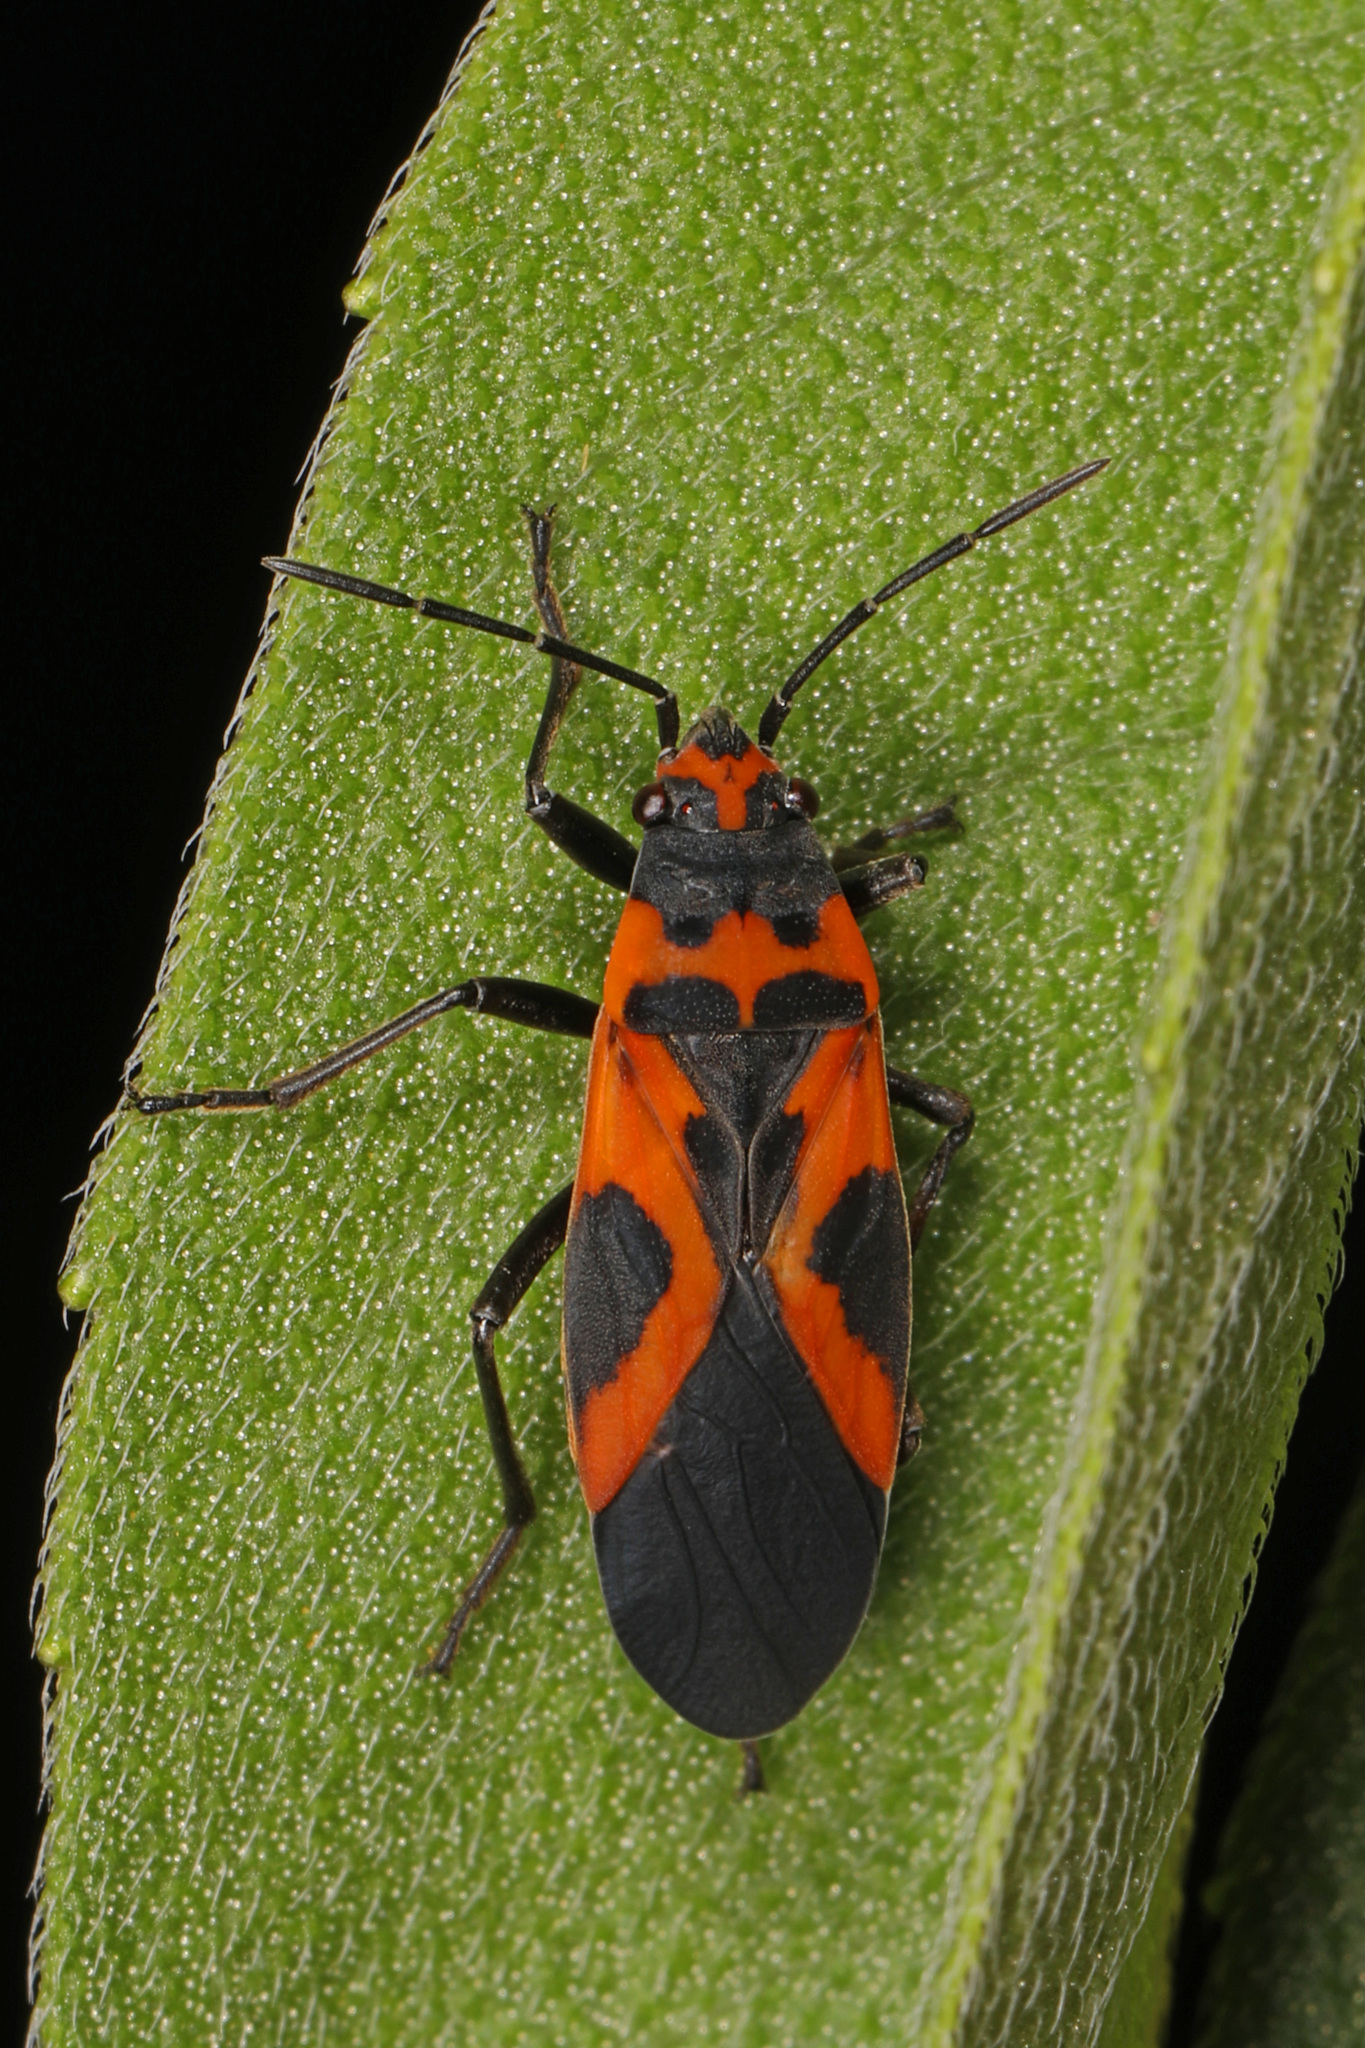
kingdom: Animalia
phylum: Arthropoda
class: Insecta
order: Hemiptera
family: Lygaeidae
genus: Lygaeus
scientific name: Lygaeus turcicus
